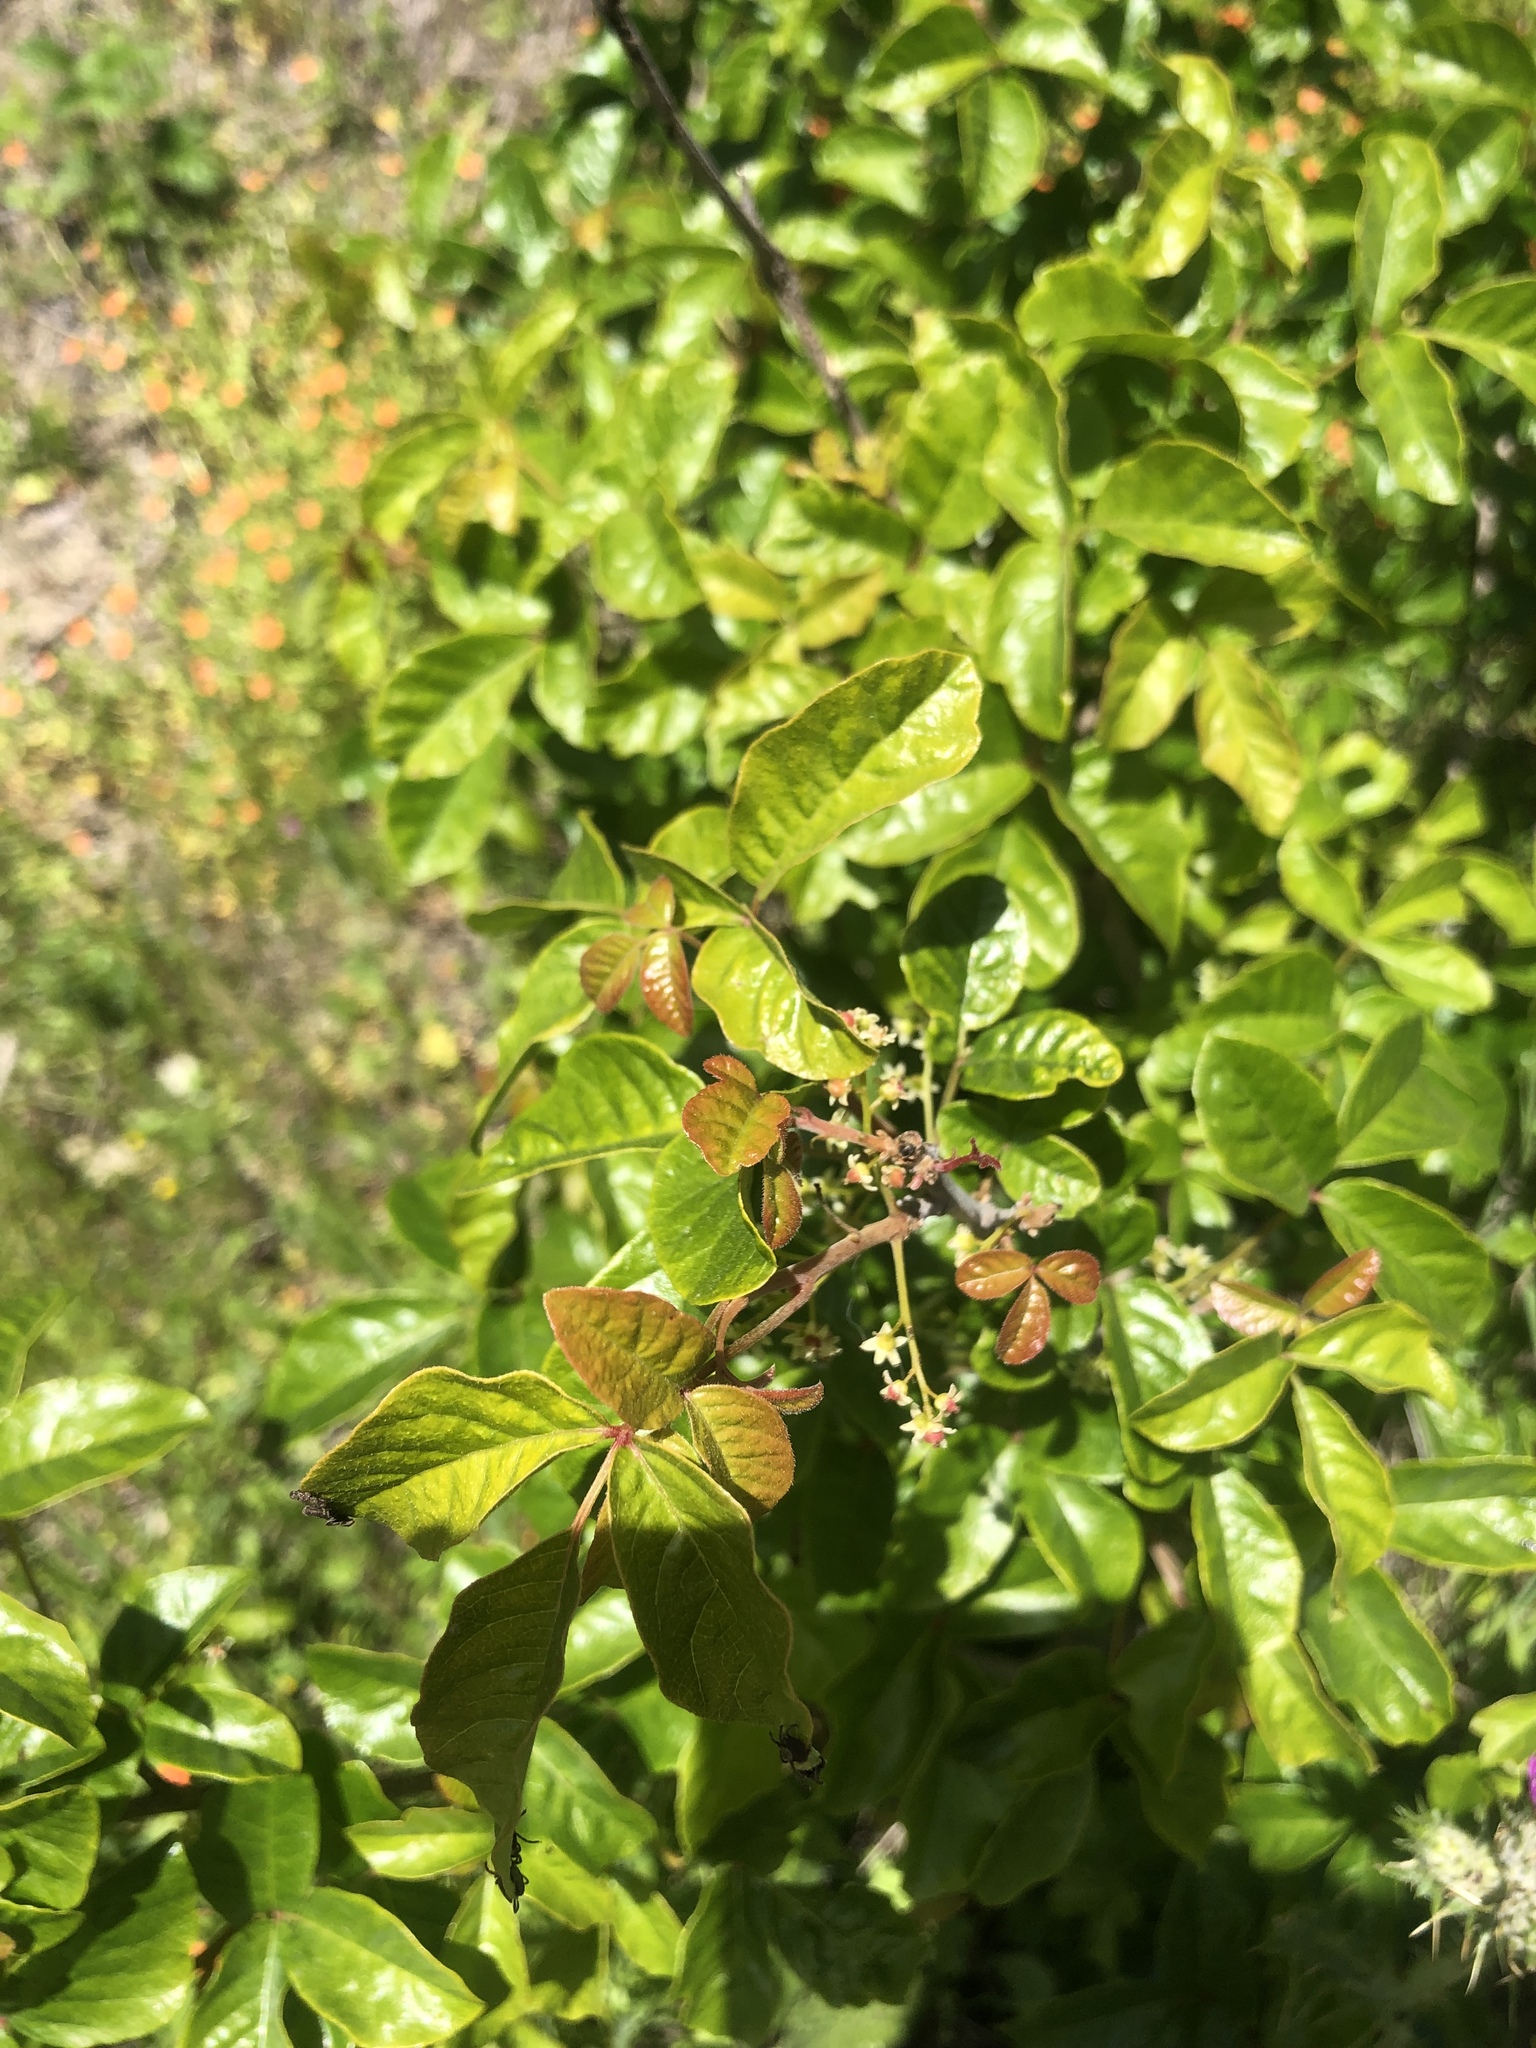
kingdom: Plantae
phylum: Tracheophyta
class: Magnoliopsida
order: Sapindales
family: Anacardiaceae
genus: Toxicodendron
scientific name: Toxicodendron diversilobum
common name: Pacific poison-oak
